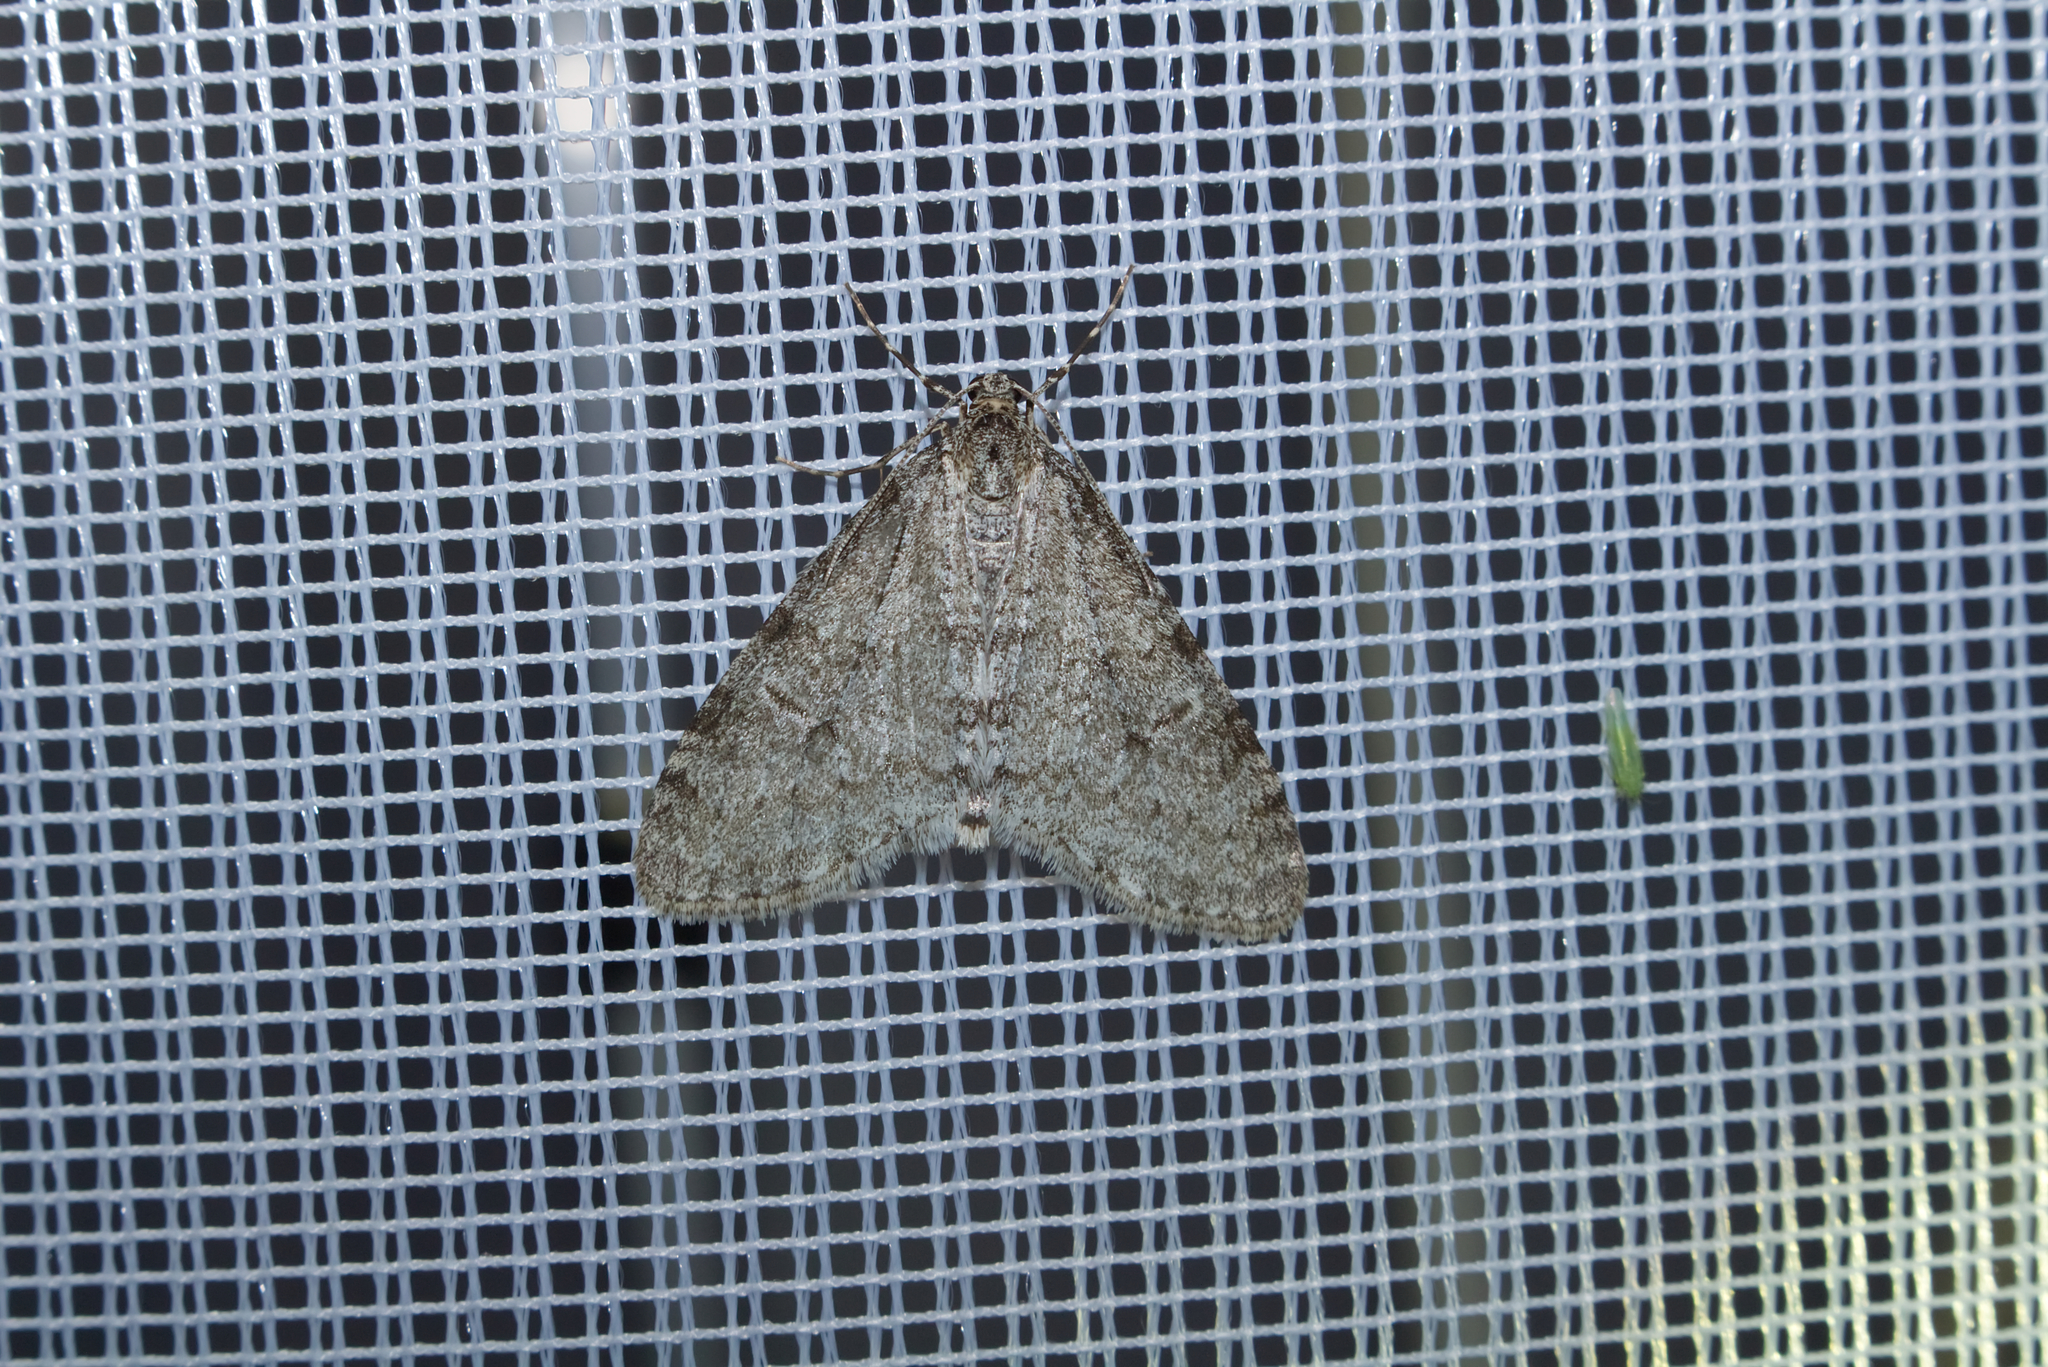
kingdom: Animalia
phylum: Arthropoda
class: Insecta
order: Lepidoptera
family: Geometridae
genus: Trichopteryx
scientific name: Trichopteryx carpinata
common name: Early tooth-striped
